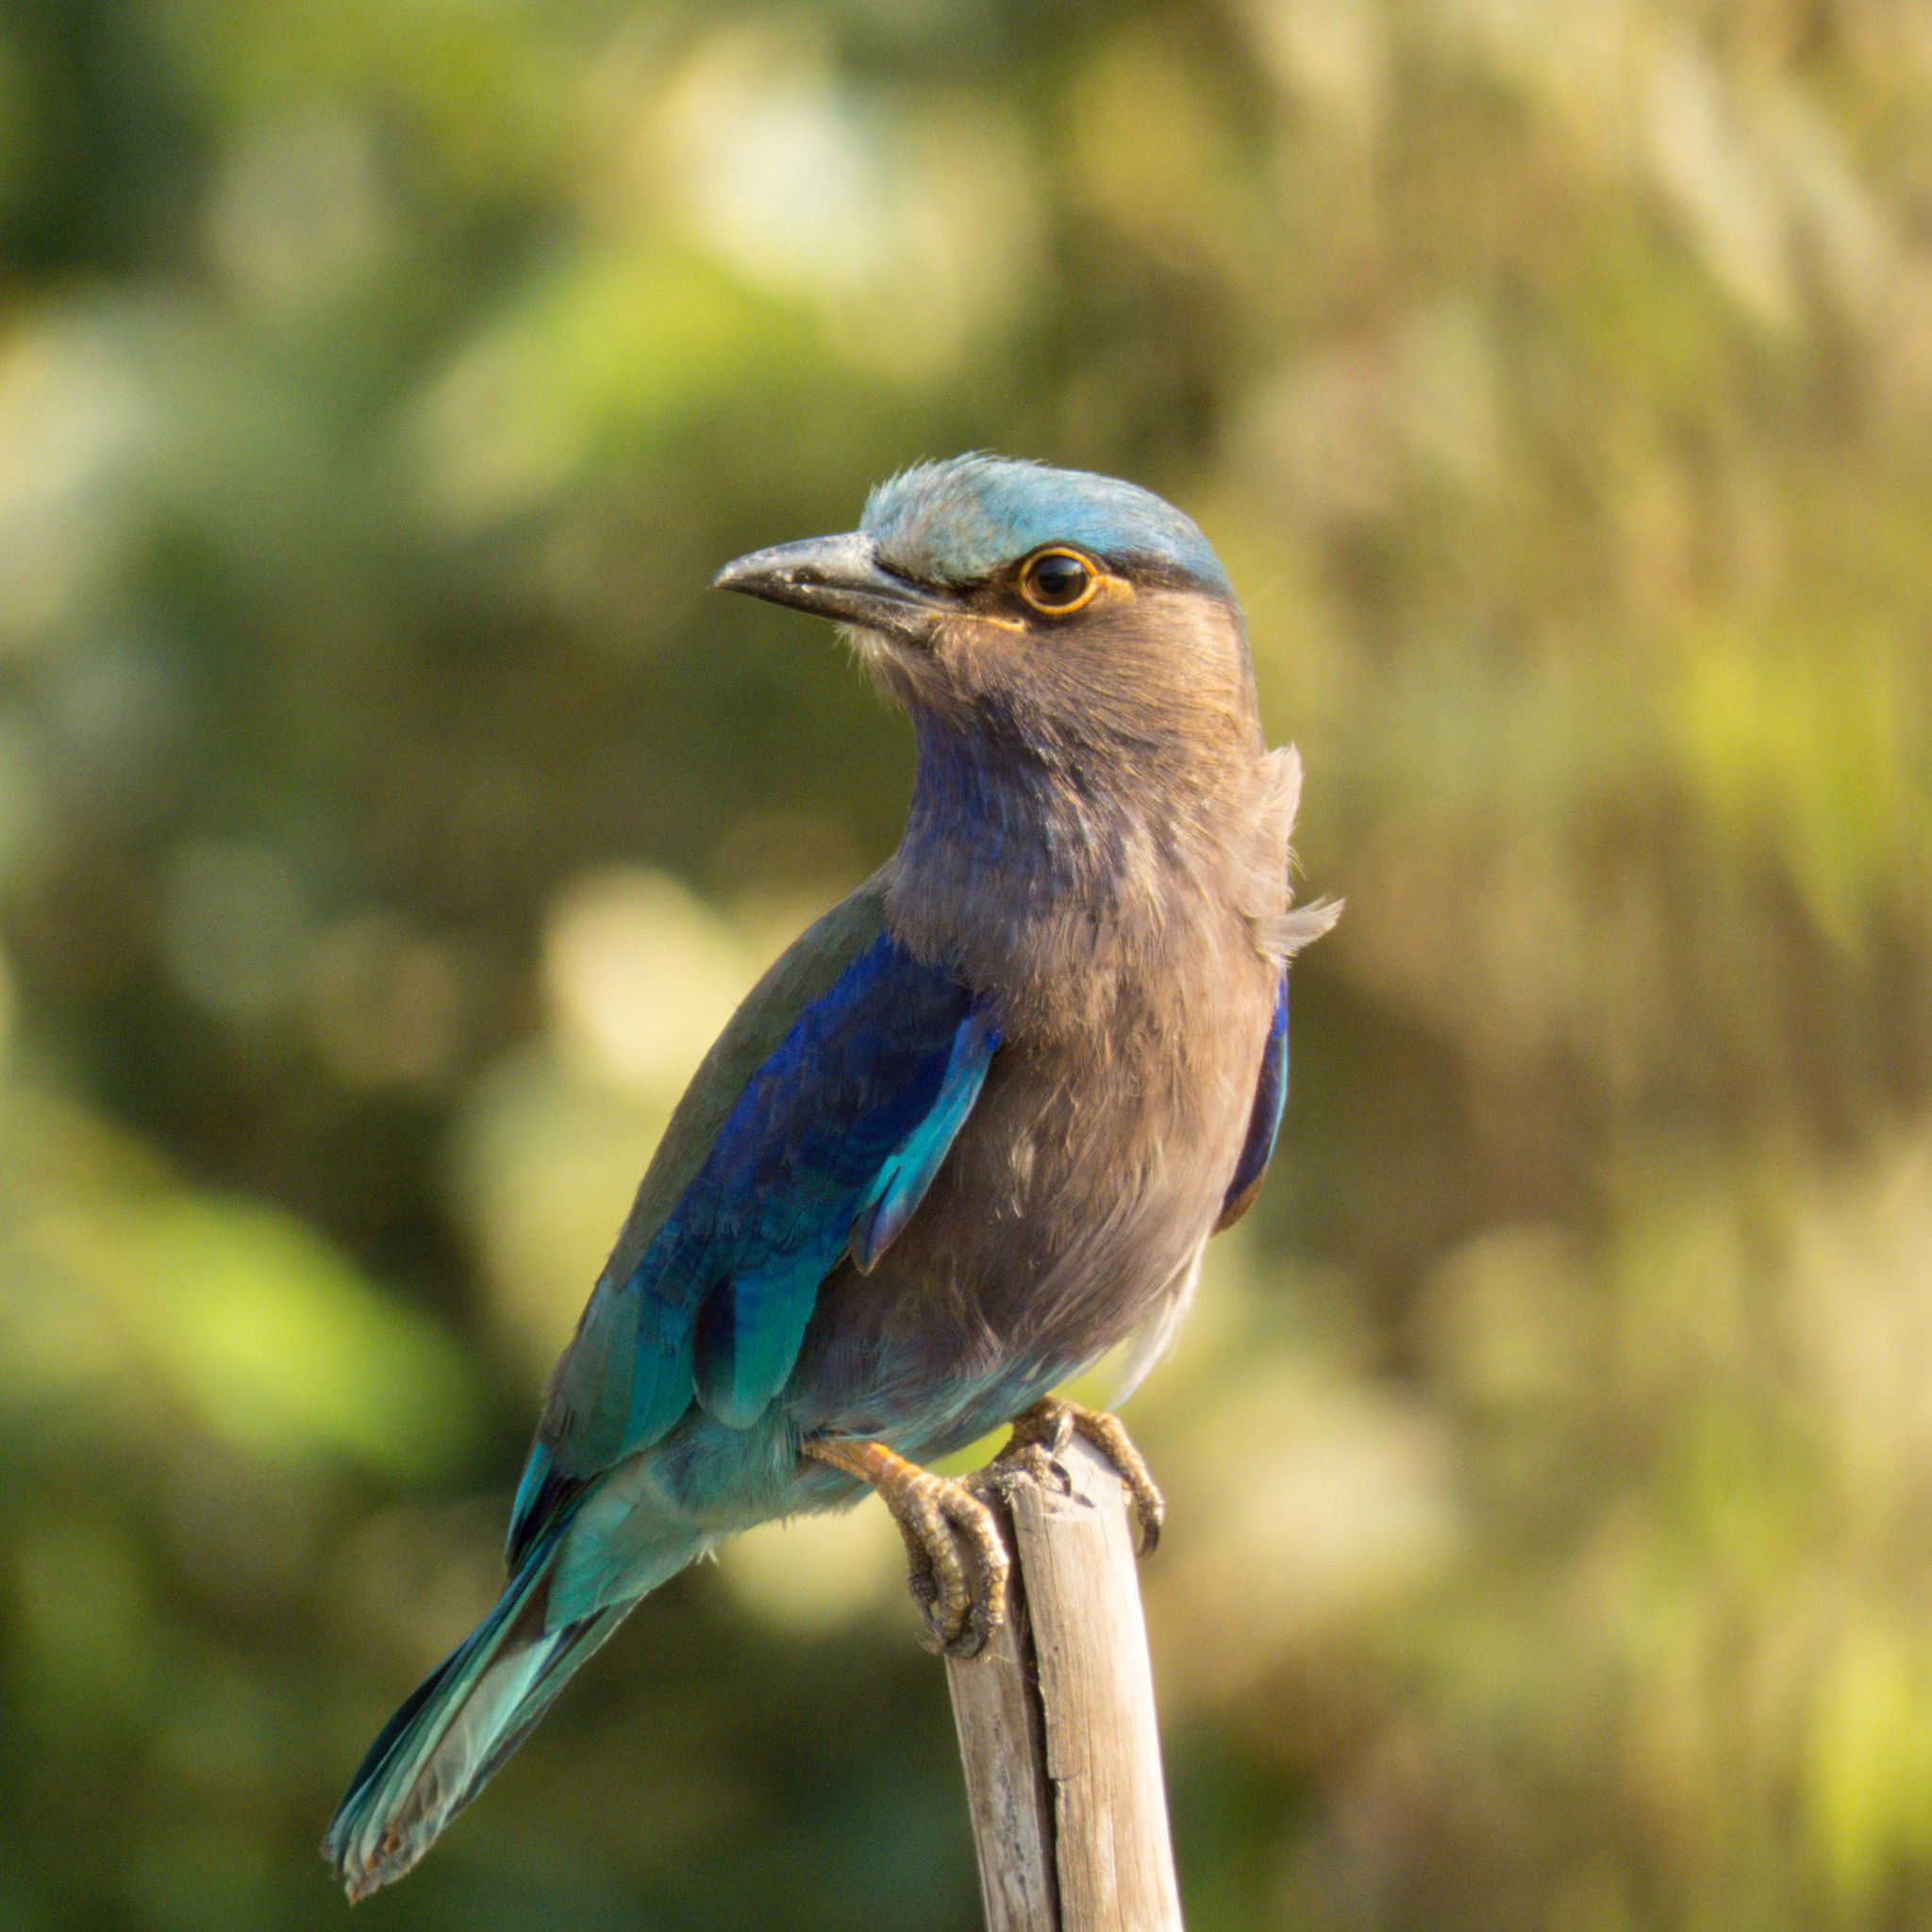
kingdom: Animalia
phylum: Chordata
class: Aves
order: Coraciiformes
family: Coraciidae
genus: Coracias
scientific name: Coracias affinis
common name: Indochinese roller
